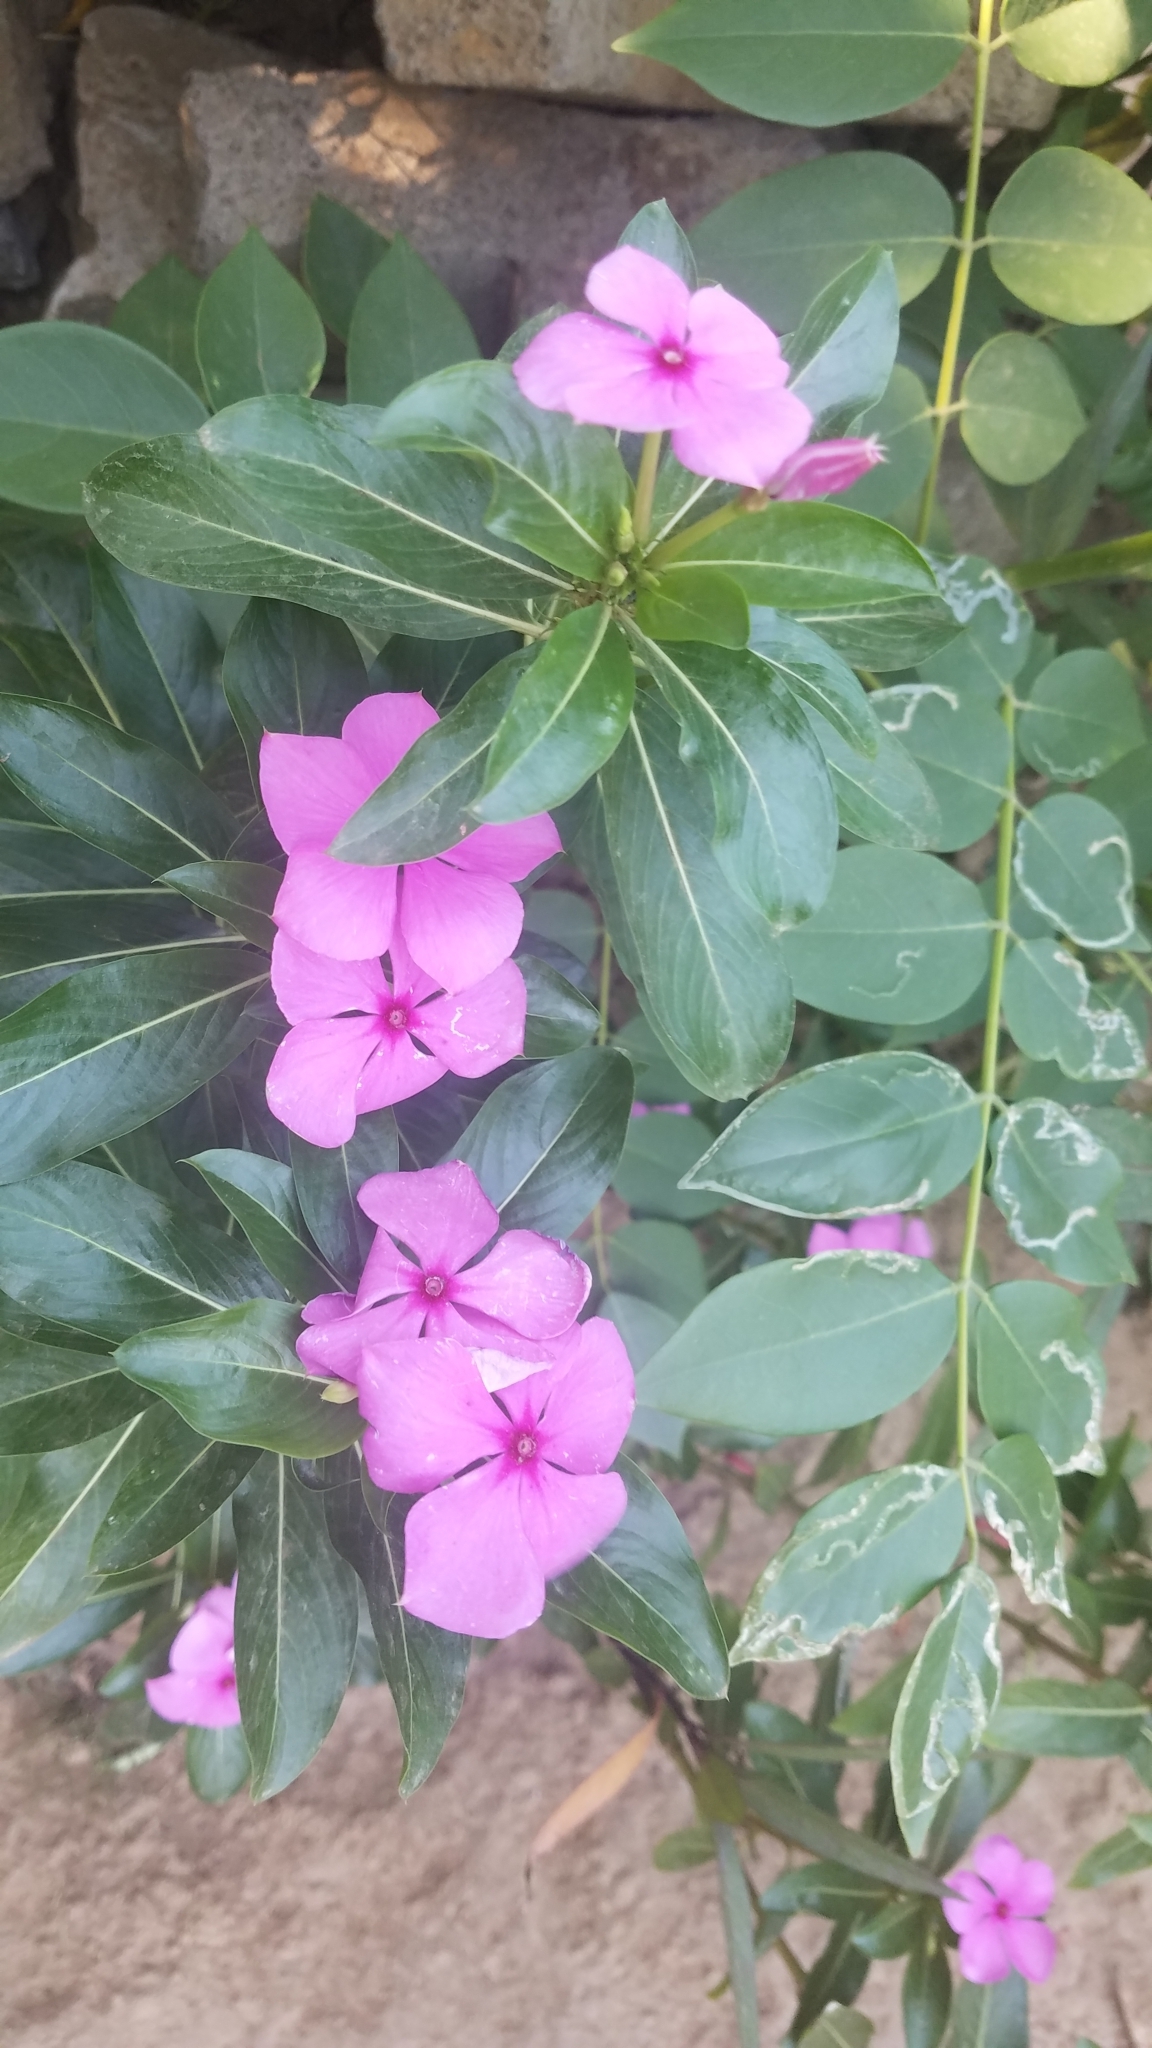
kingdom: Plantae
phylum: Tracheophyta
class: Magnoliopsida
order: Gentianales
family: Apocynaceae
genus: Catharanthus
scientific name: Catharanthus roseus
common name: Madagascar periwinkle
